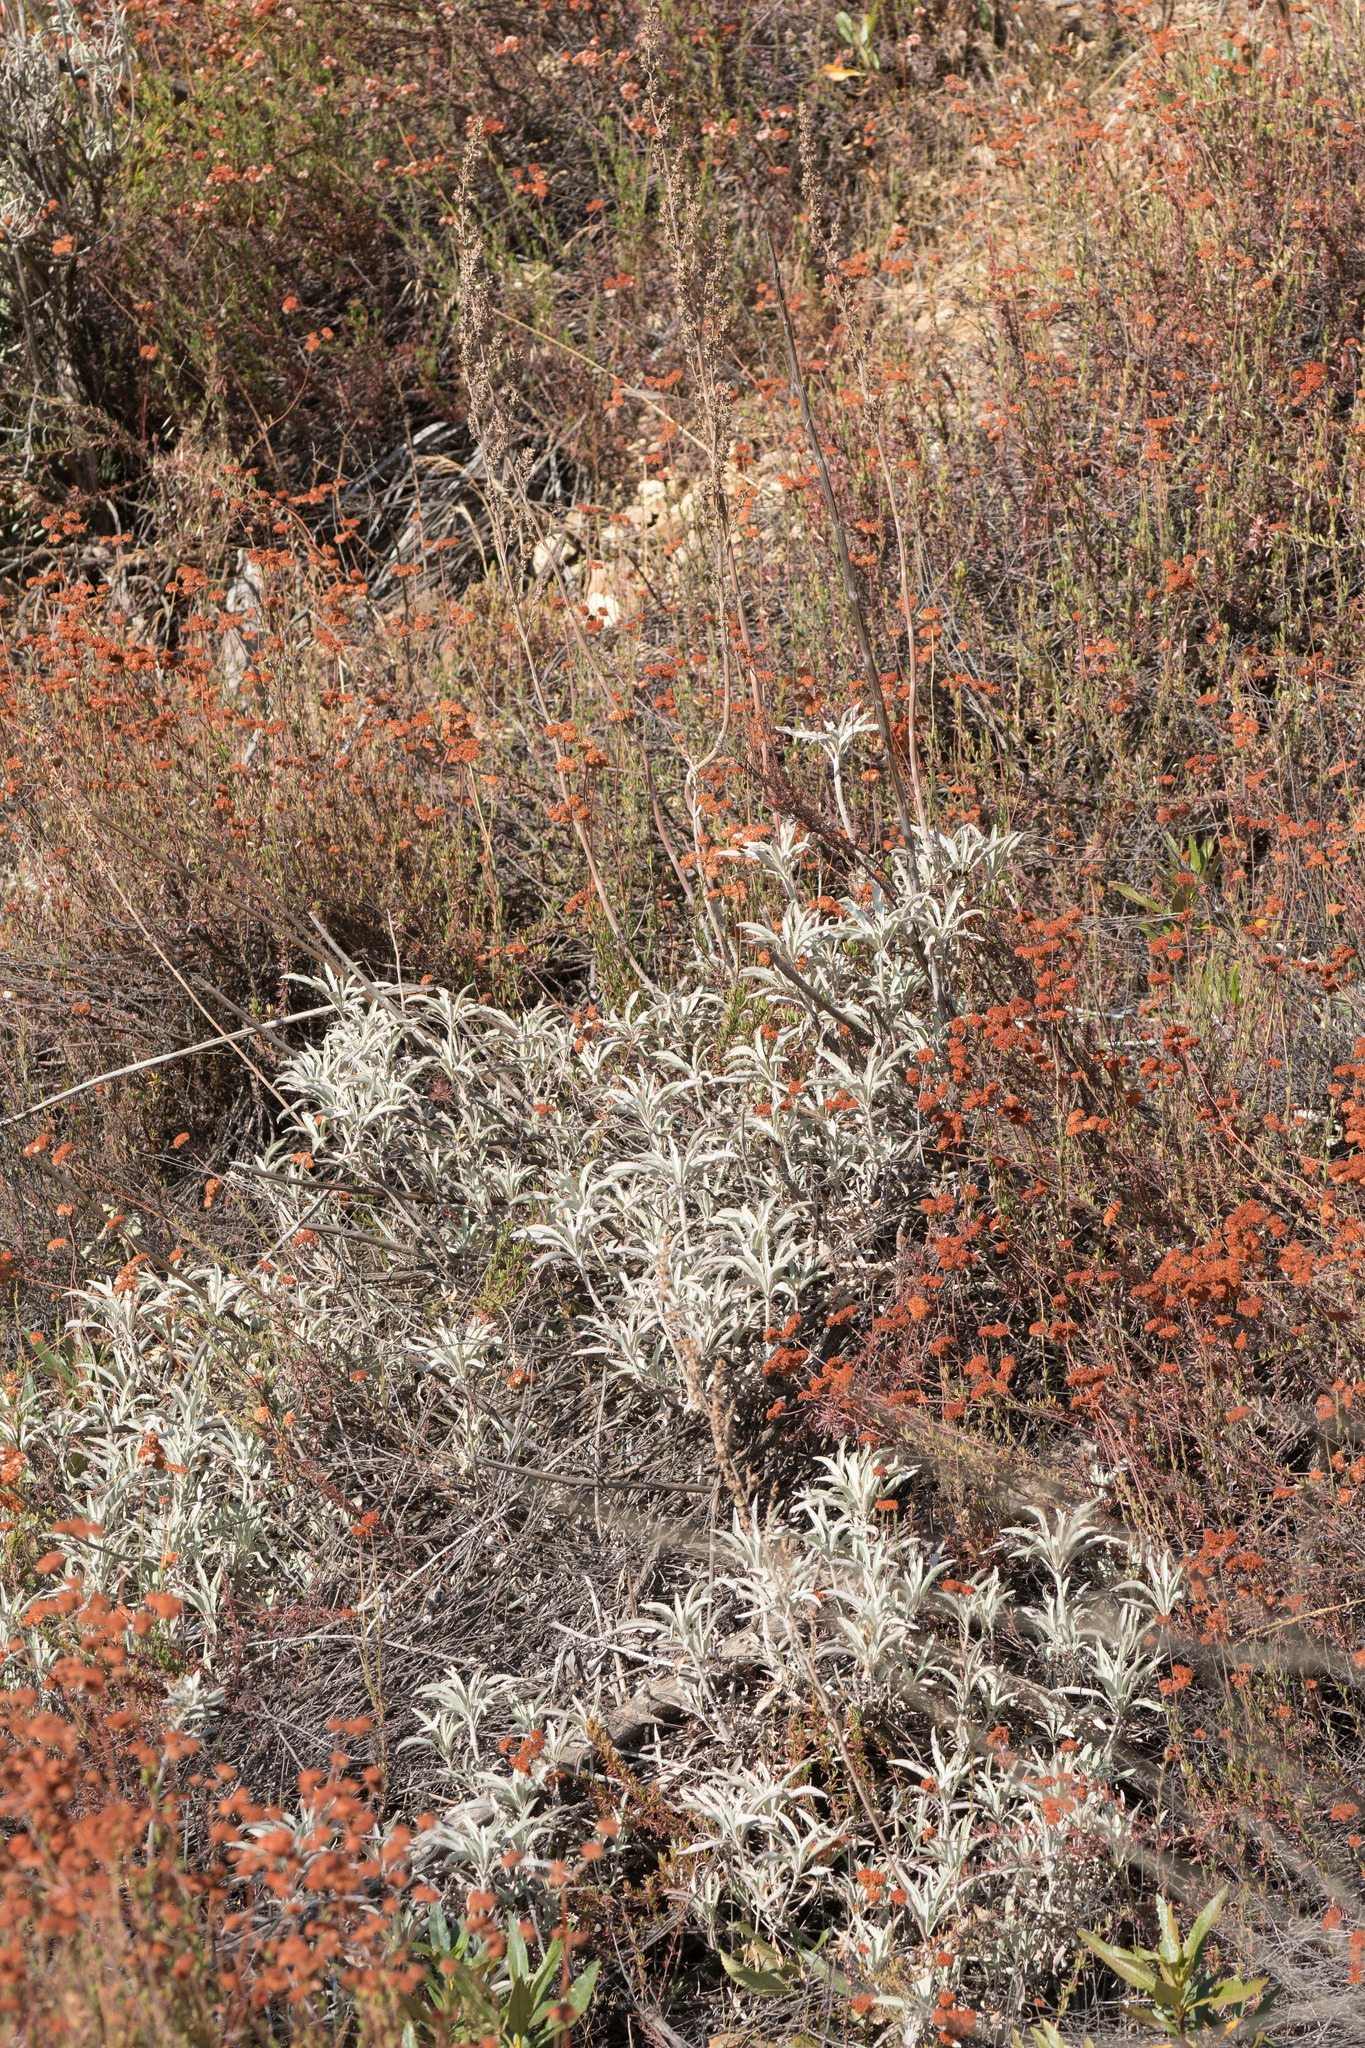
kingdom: Plantae
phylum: Tracheophyta
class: Magnoliopsida
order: Lamiales
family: Lamiaceae
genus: Salvia
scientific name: Salvia apiana
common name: White sage
